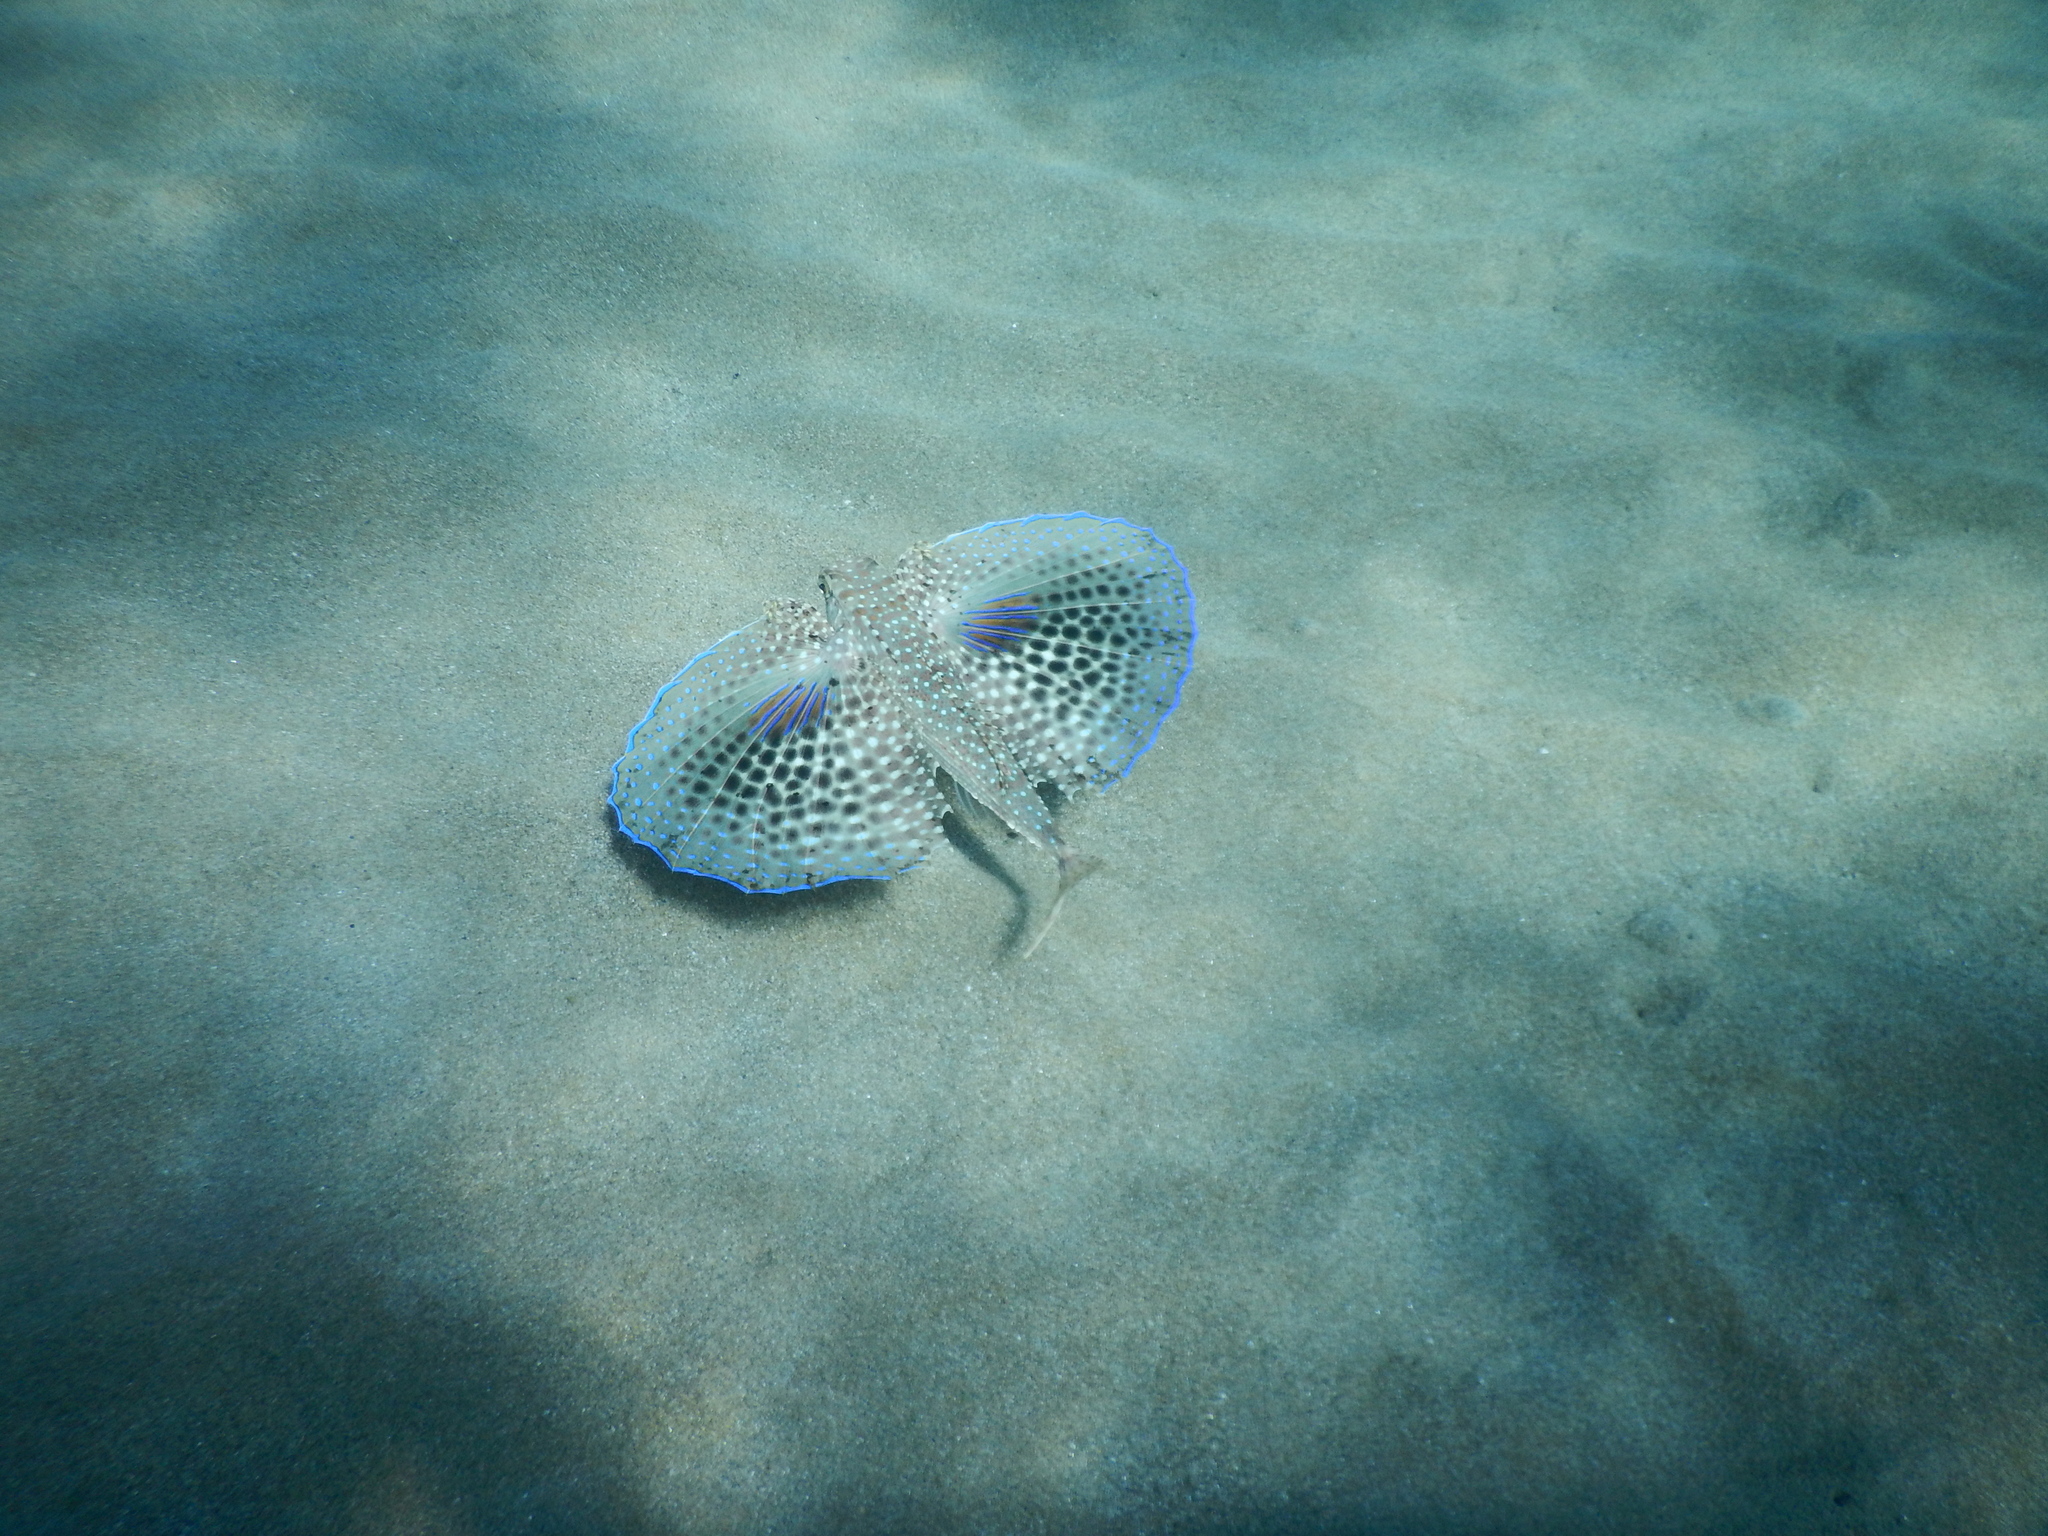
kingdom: Animalia
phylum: Chordata
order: Scorpaeniformes
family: Dactylopteridae
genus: Dactylopterus
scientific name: Dactylopterus volitans
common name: Flying gurnard
